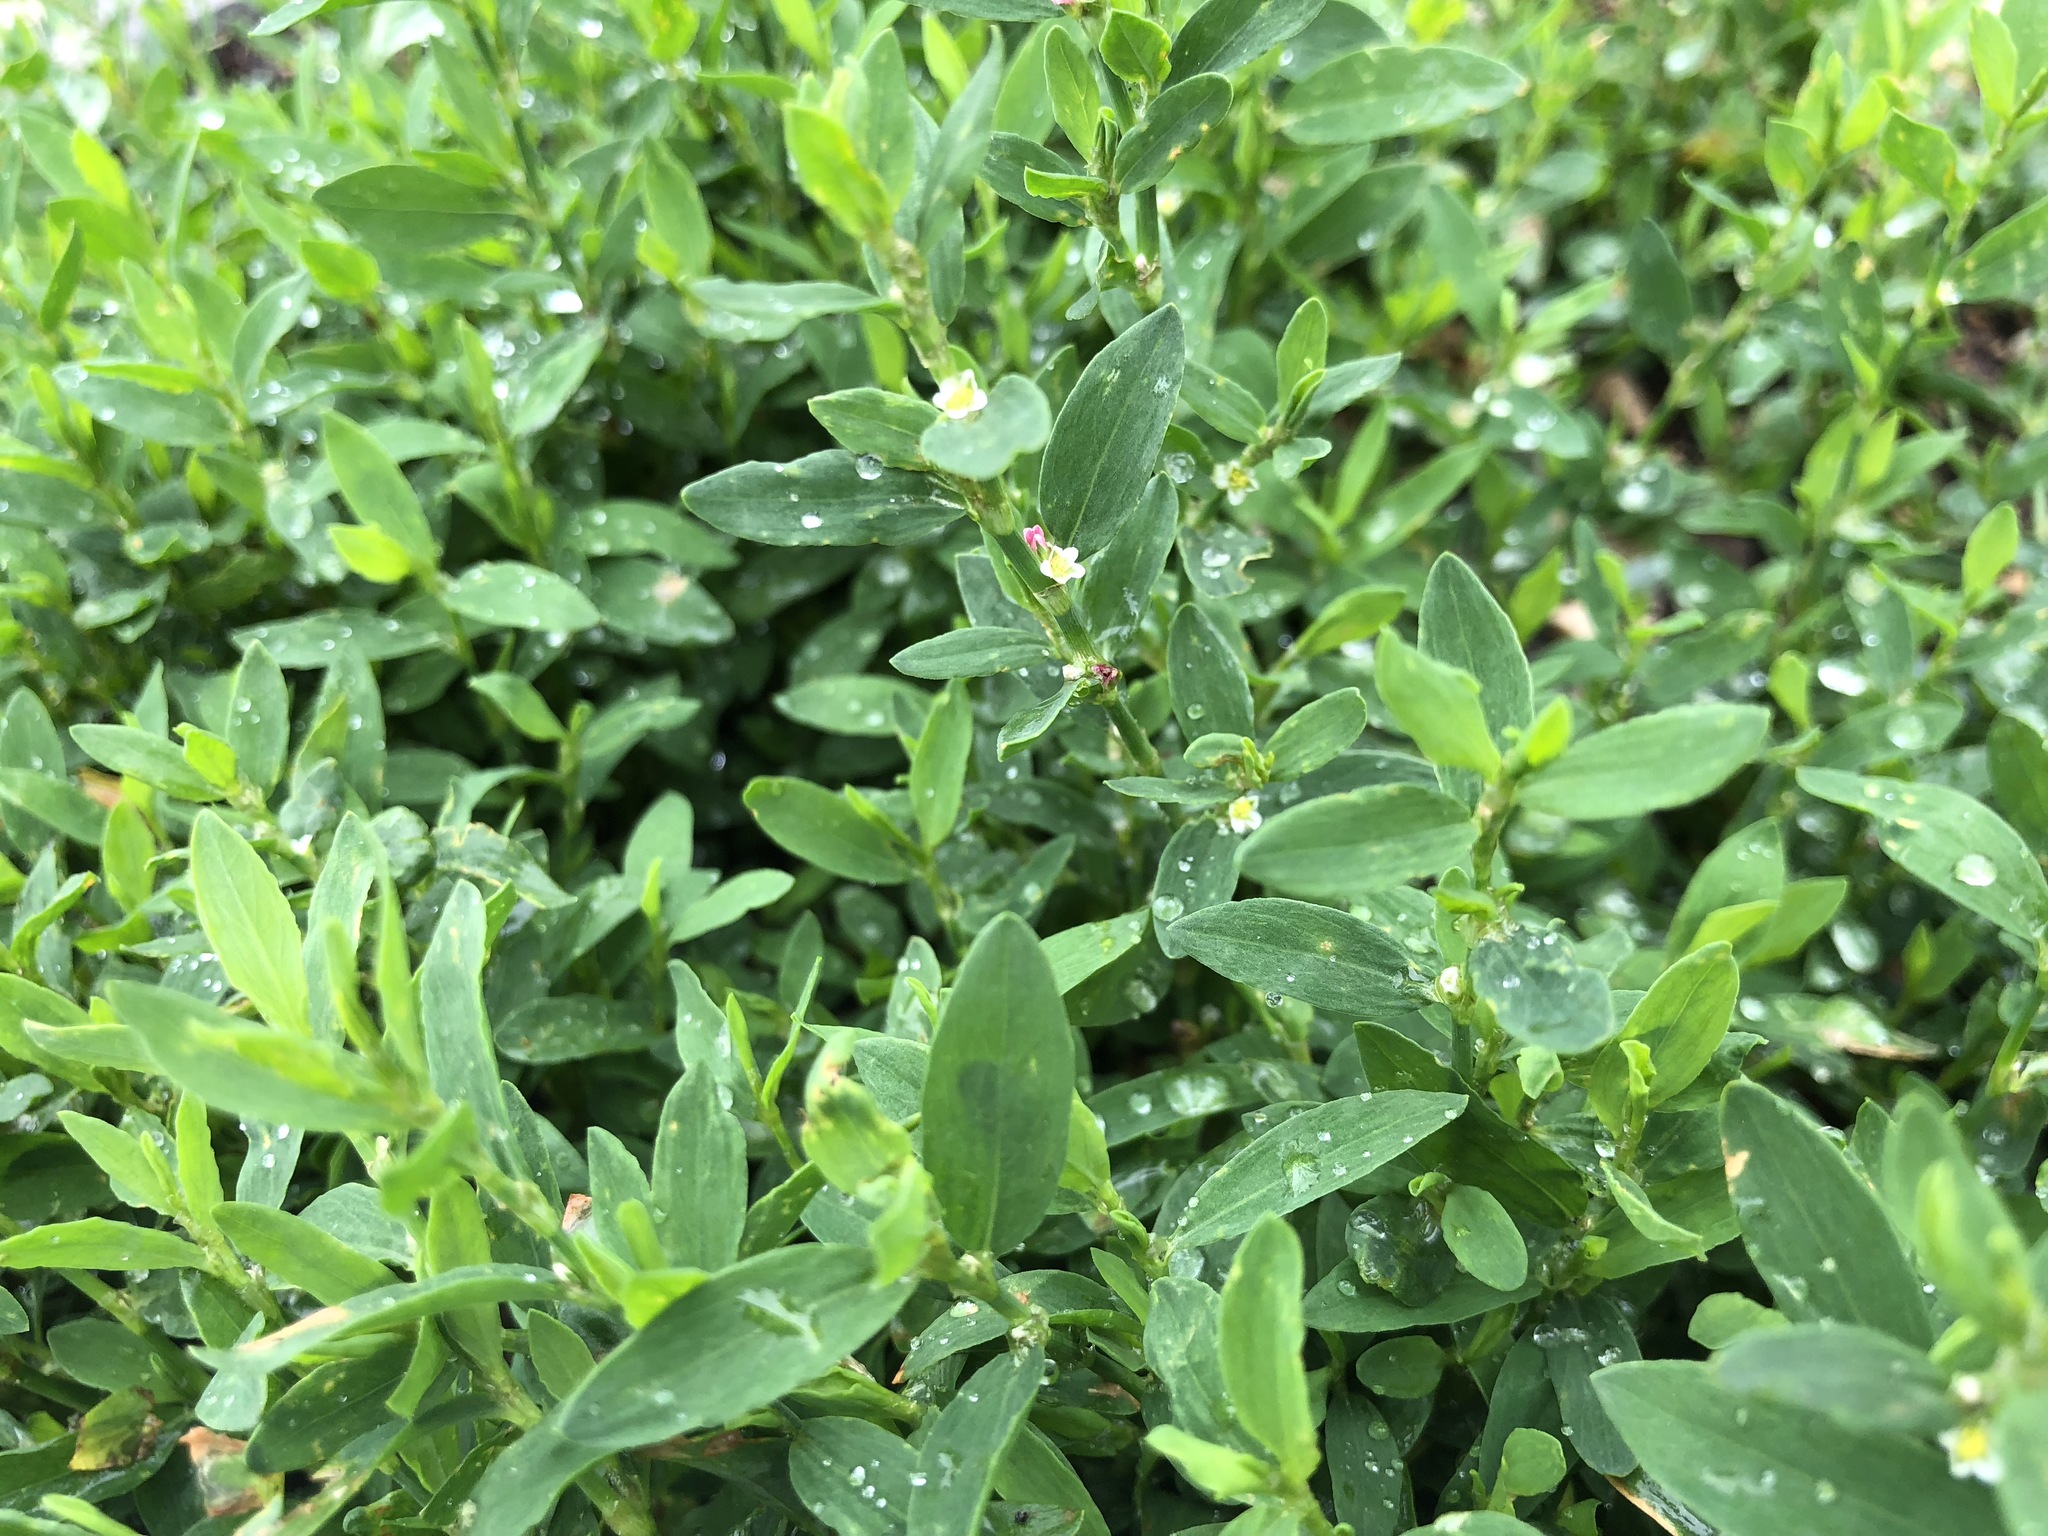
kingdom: Plantae
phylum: Tracheophyta
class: Magnoliopsida
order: Caryophyllales
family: Polygonaceae
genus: Polygonum
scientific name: Polygonum aviculare
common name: Prostrate knotweed
